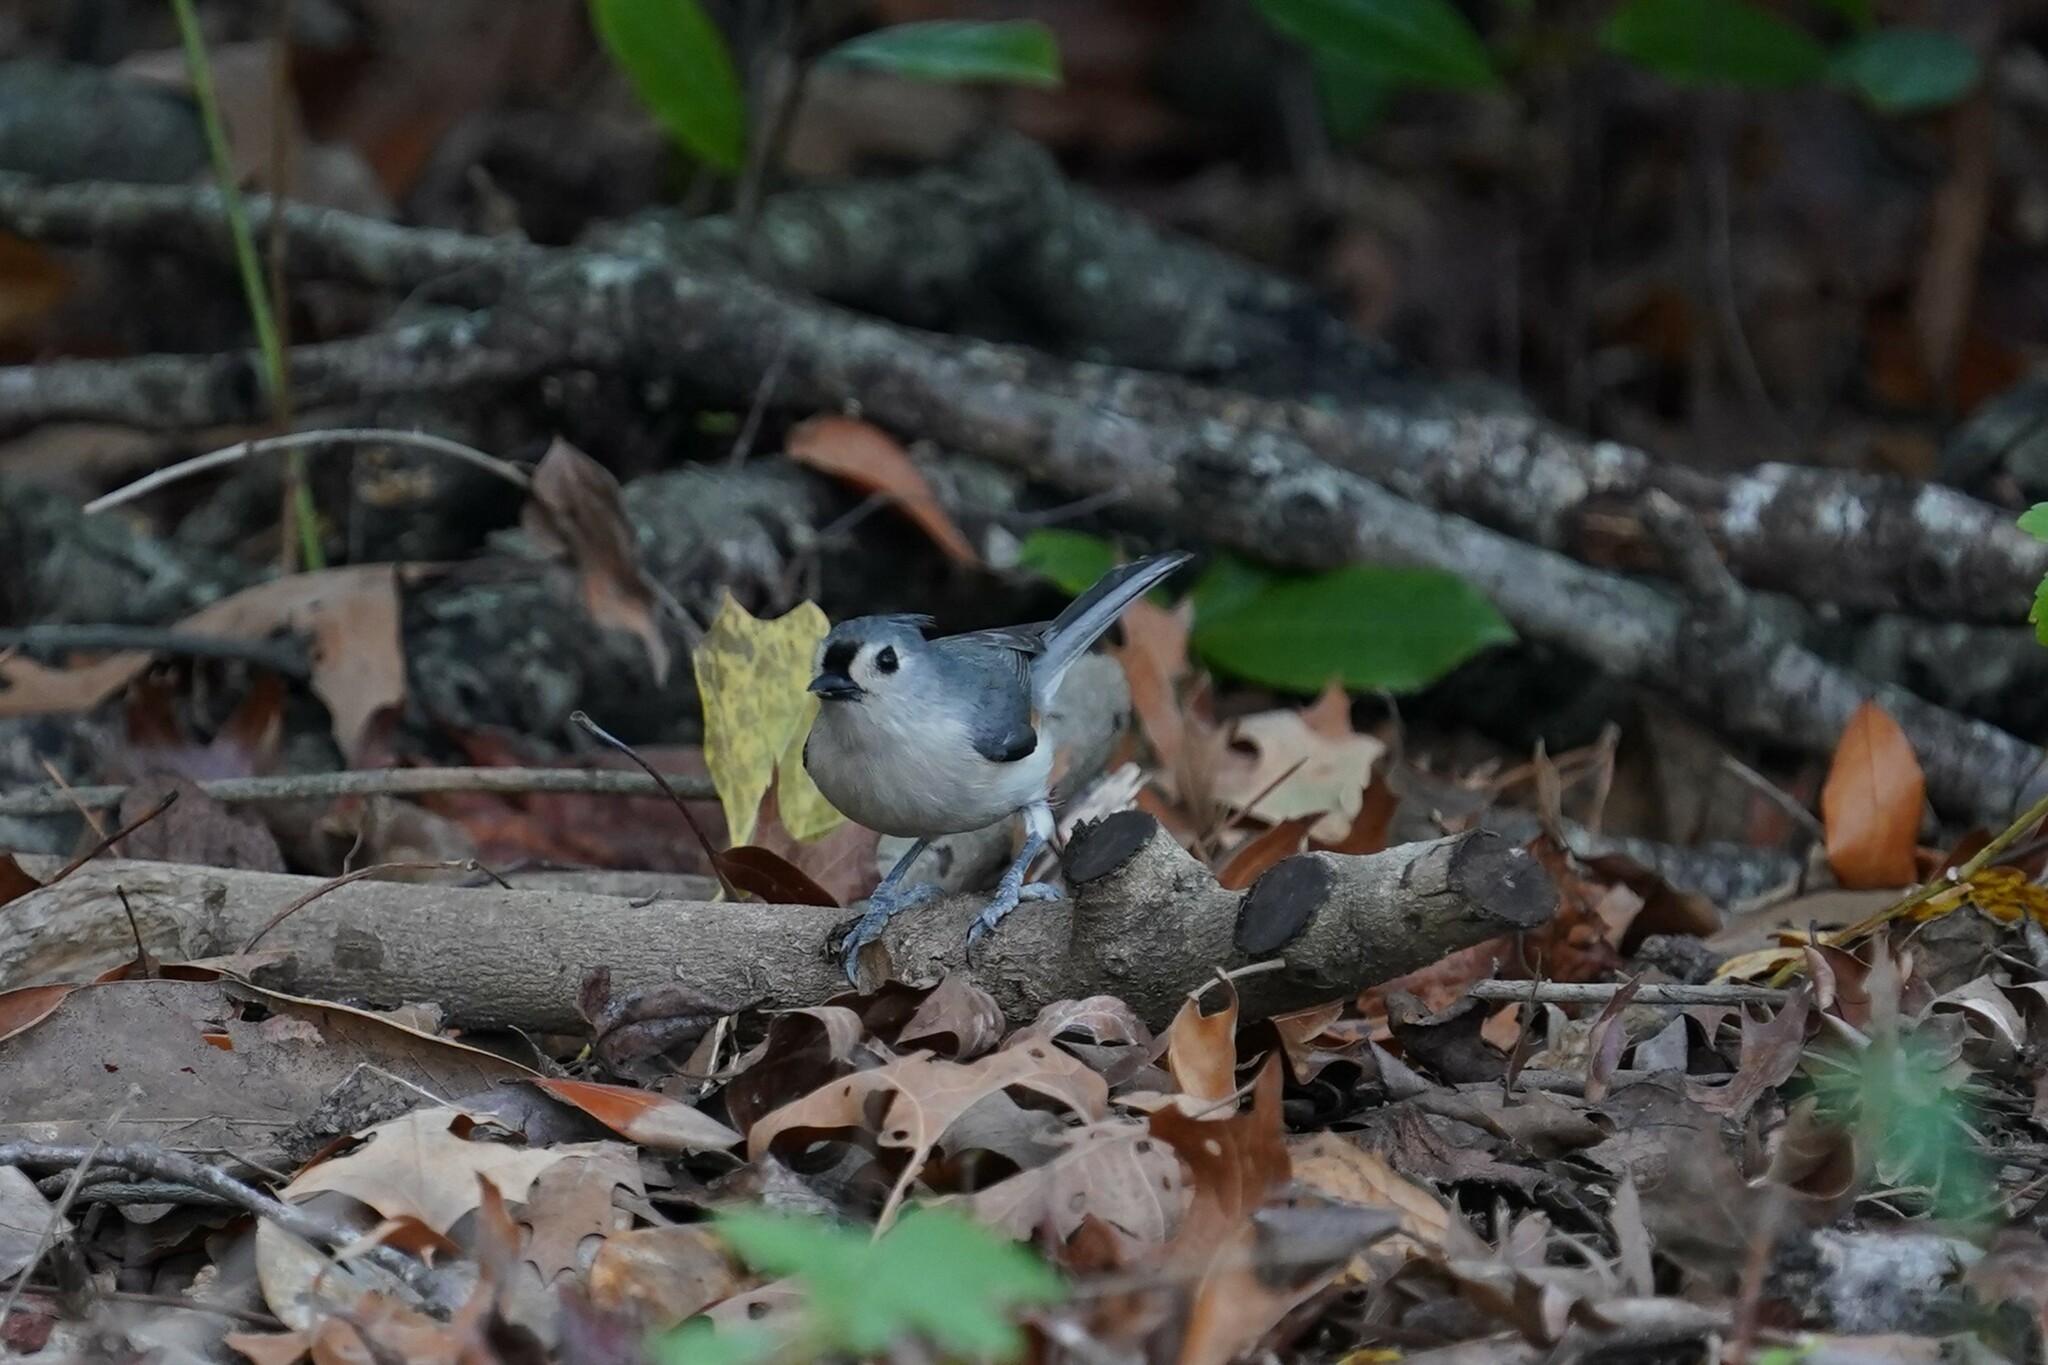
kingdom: Animalia
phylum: Chordata
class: Aves
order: Passeriformes
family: Paridae
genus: Baeolophus
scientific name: Baeolophus bicolor
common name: Tufted titmouse
